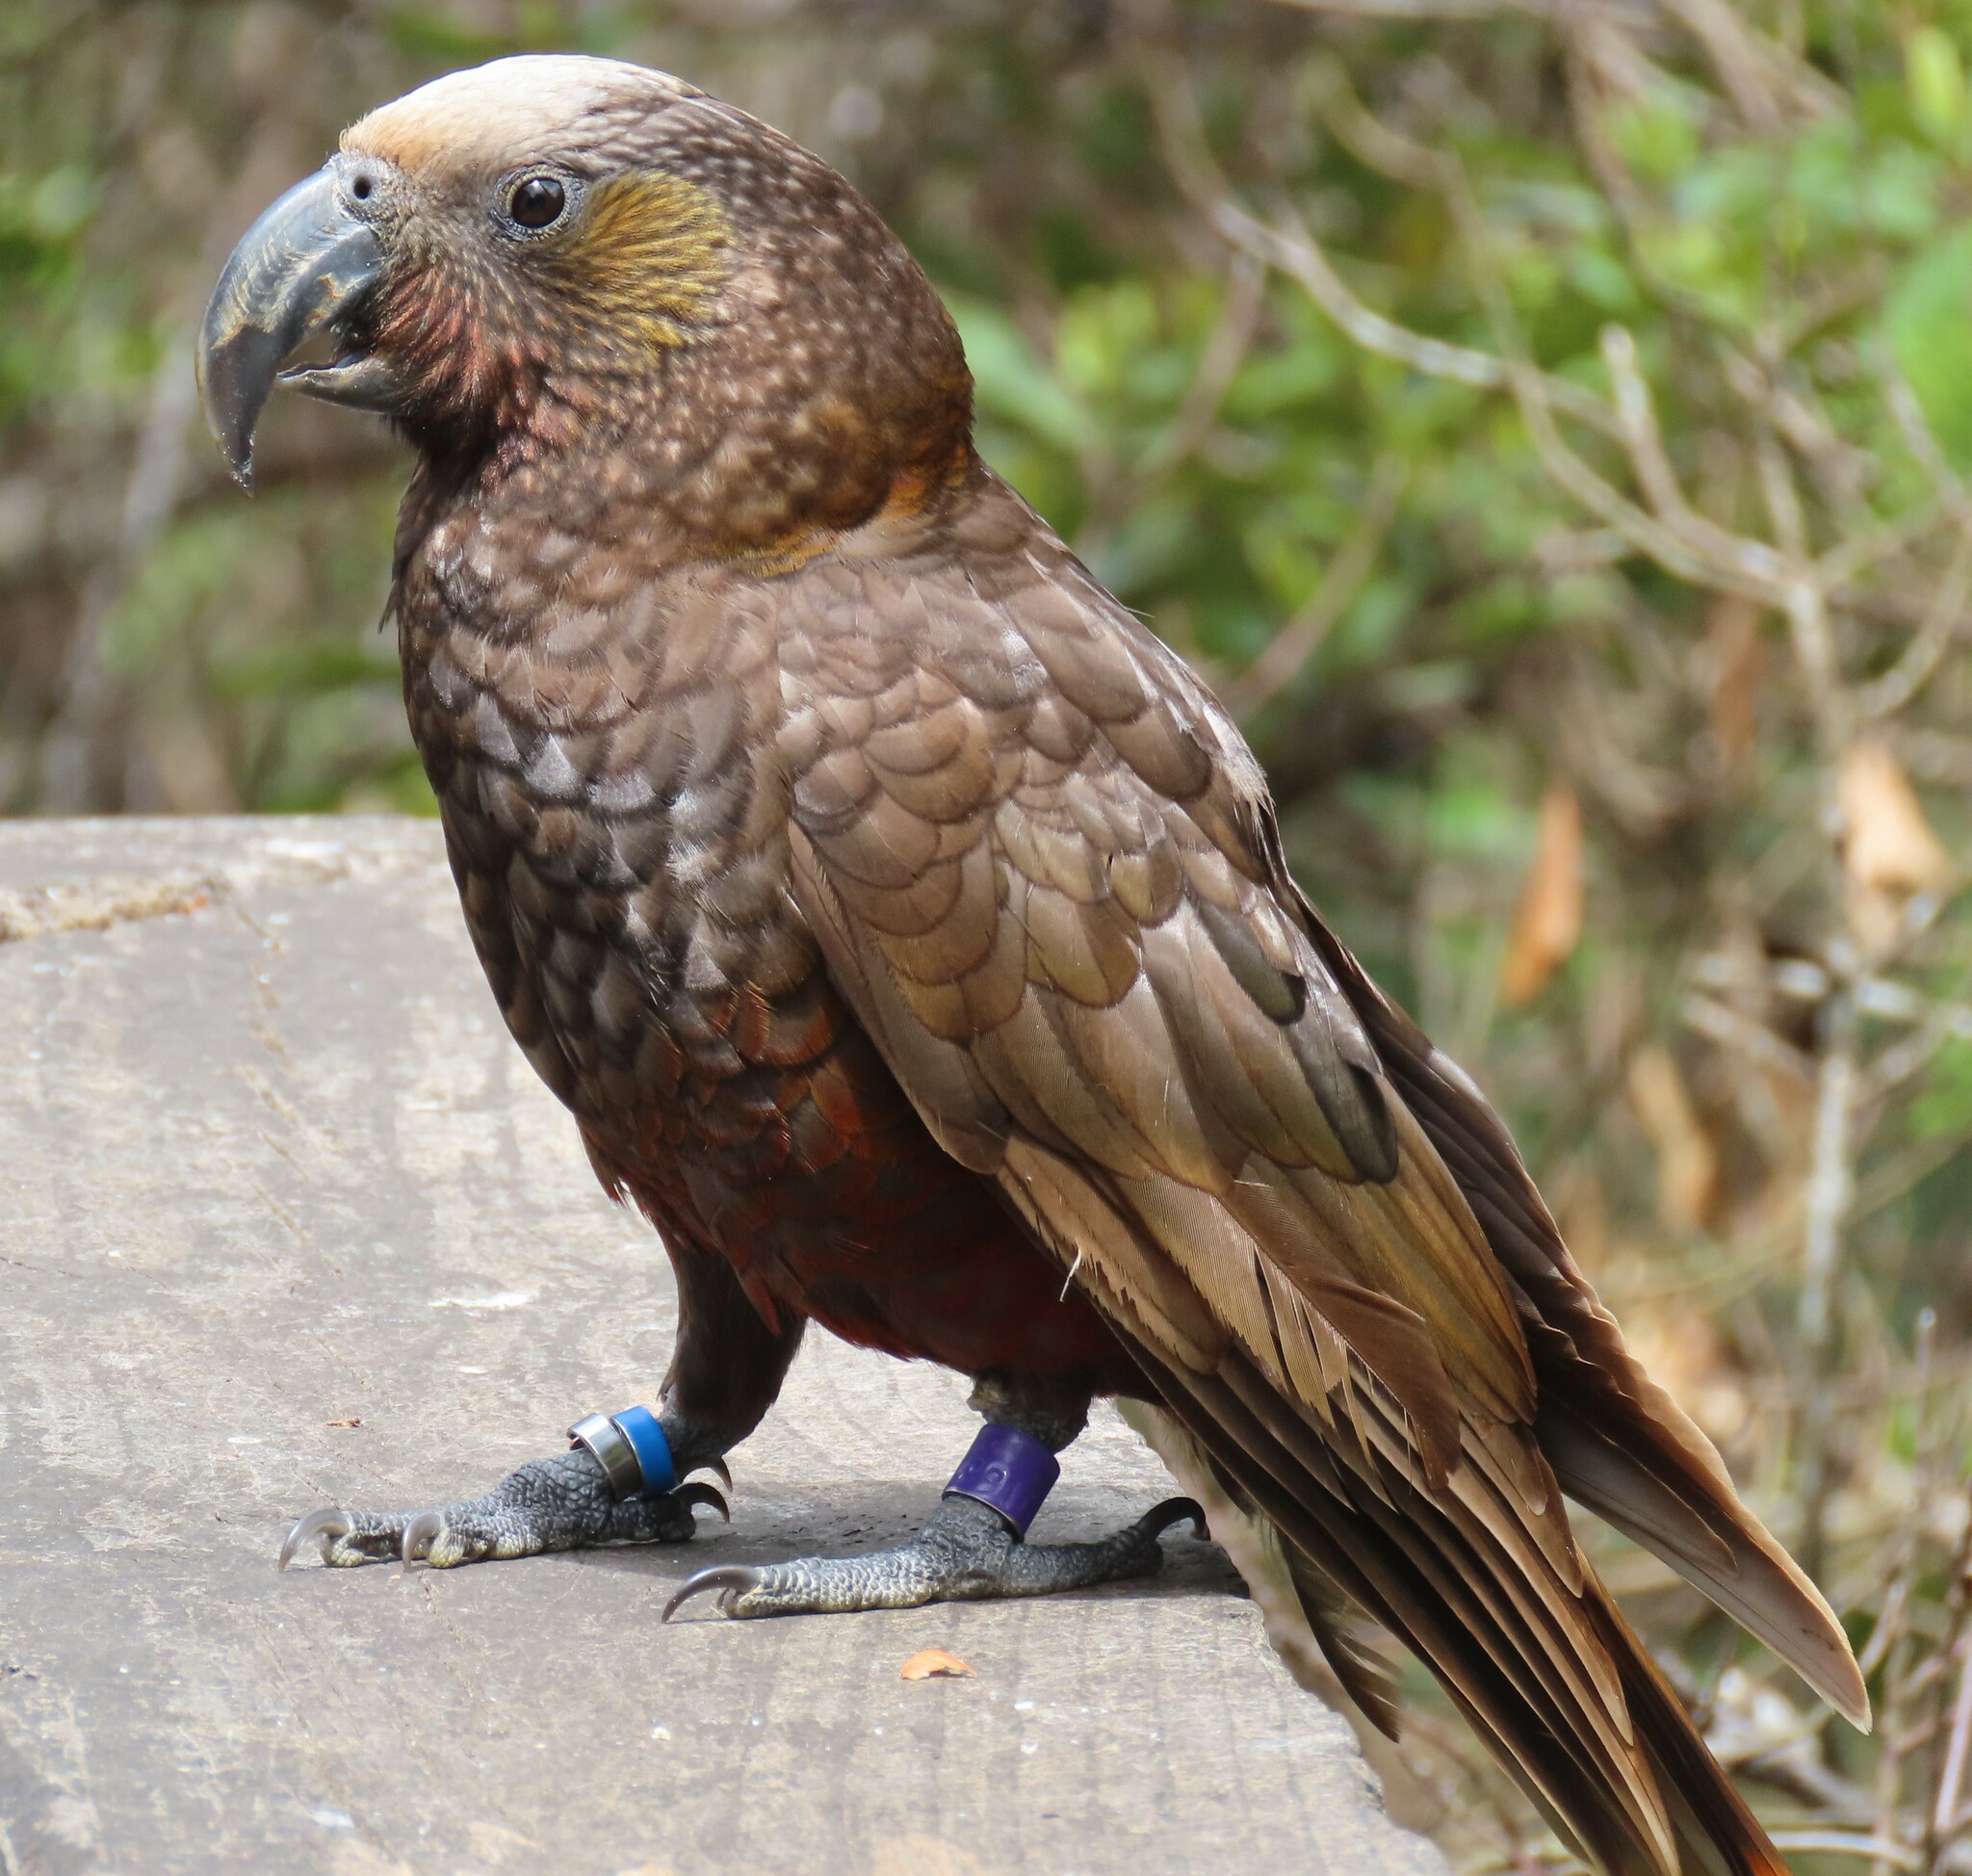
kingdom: Animalia
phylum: Chordata
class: Aves
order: Psittaciformes
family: Psittacidae
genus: Nestor
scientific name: Nestor meridionalis
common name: New zealand kaka
